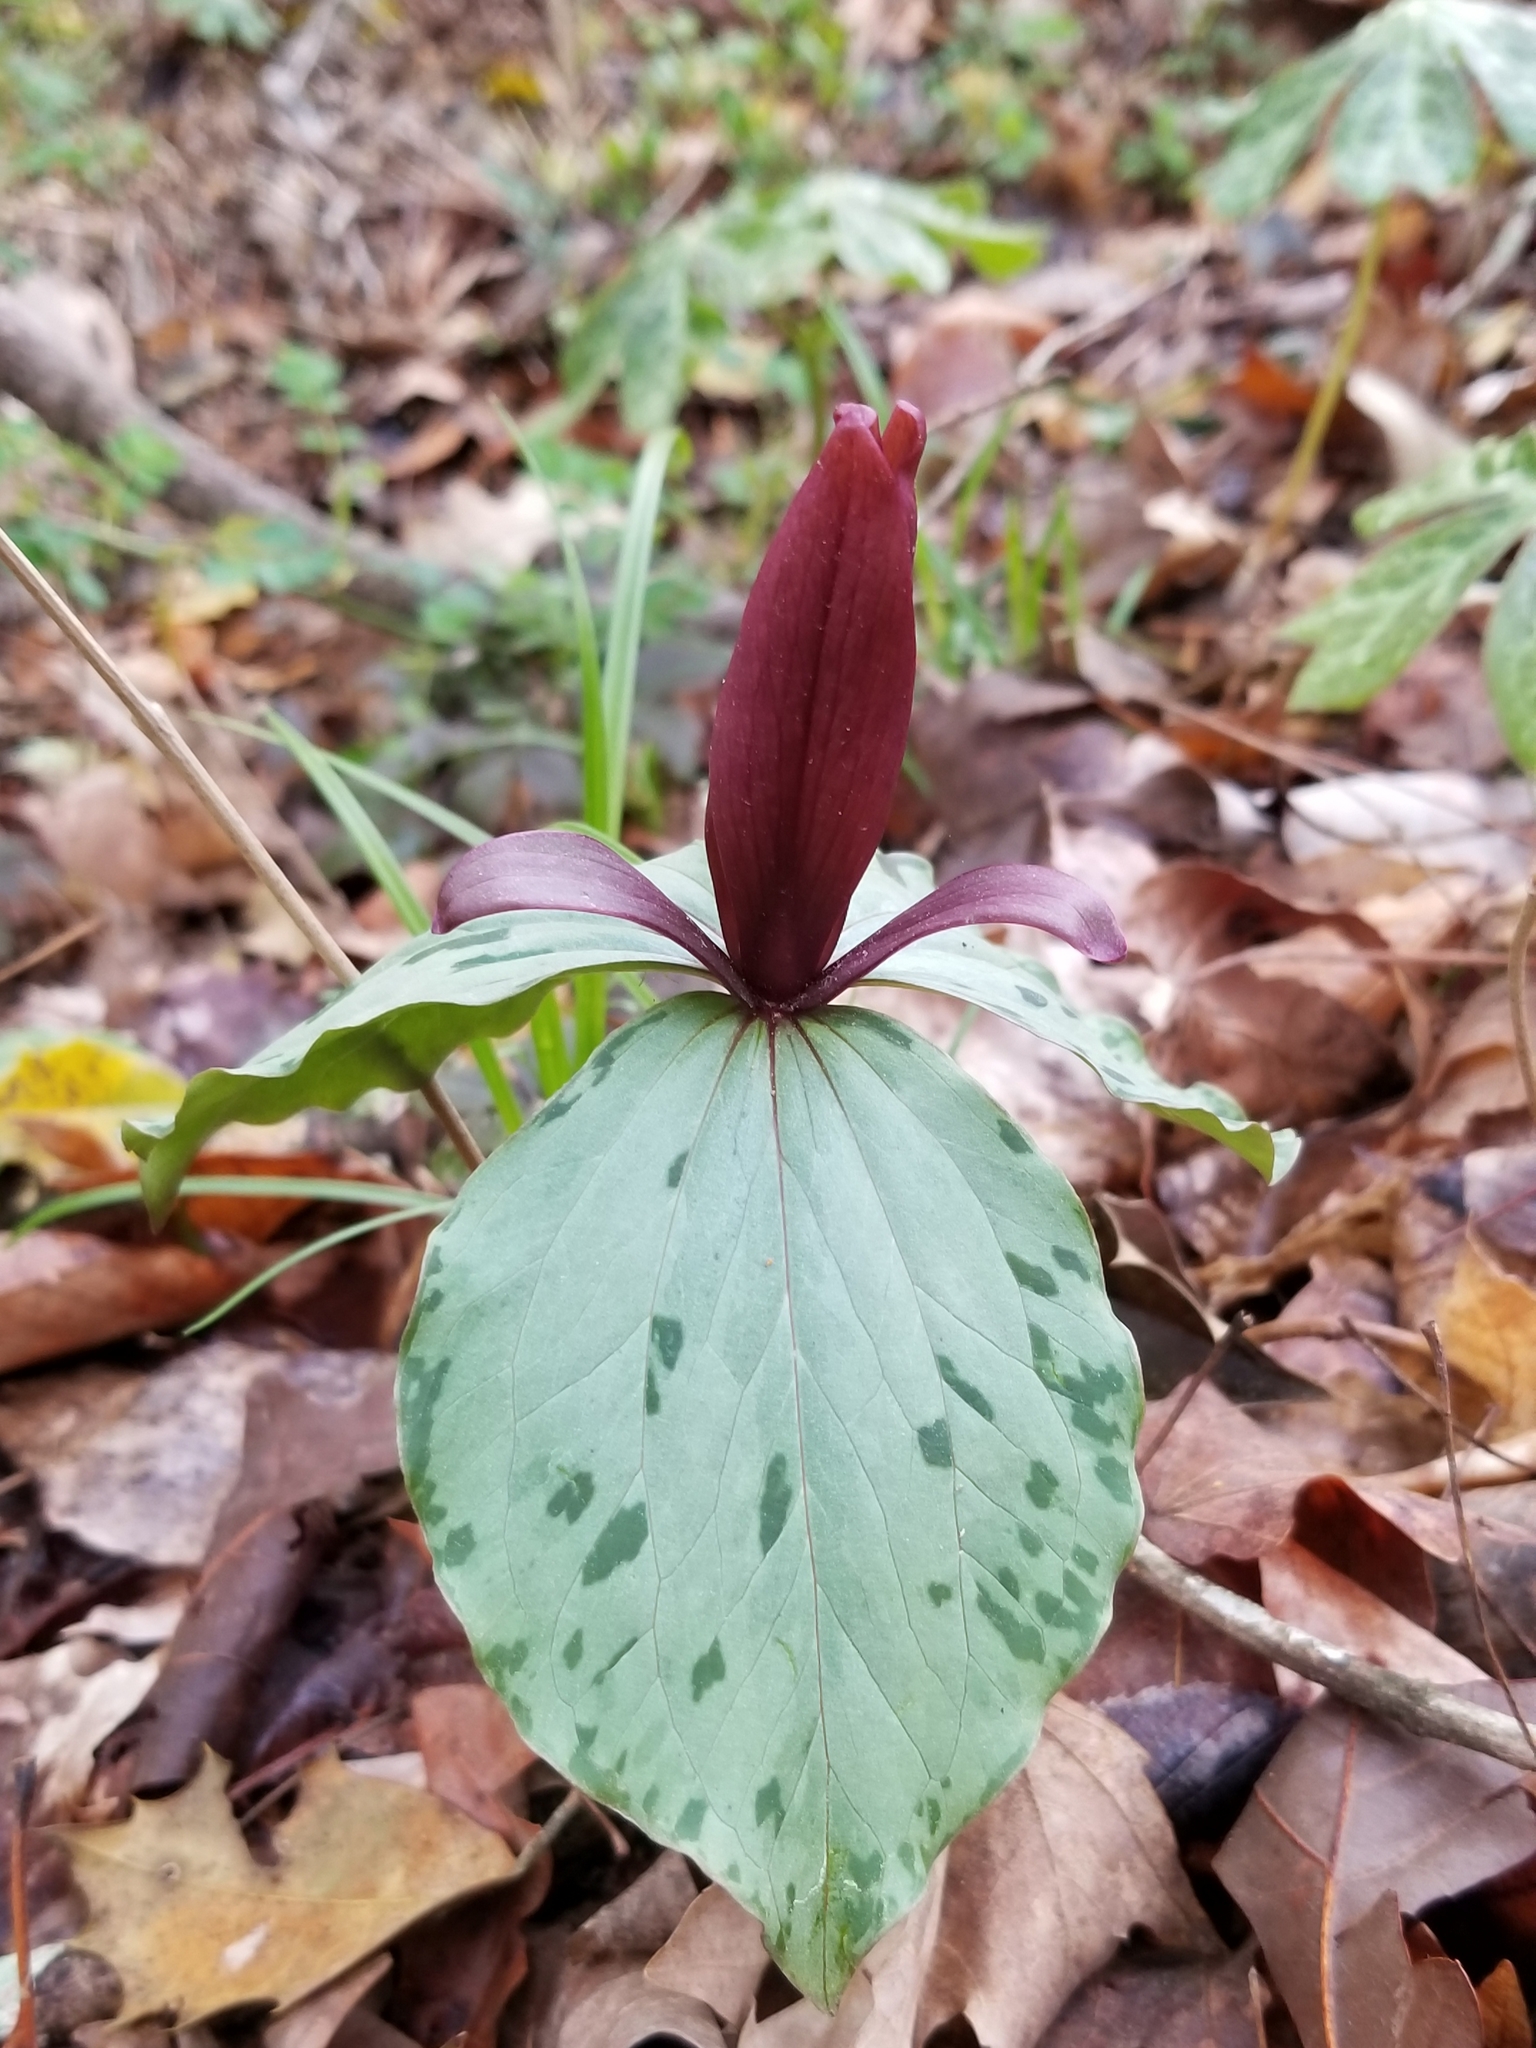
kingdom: Plantae
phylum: Tracheophyta
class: Liliopsida
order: Liliales
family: Melanthiaceae
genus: Trillium
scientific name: Trillium cuneatum
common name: Cuneate trillium
